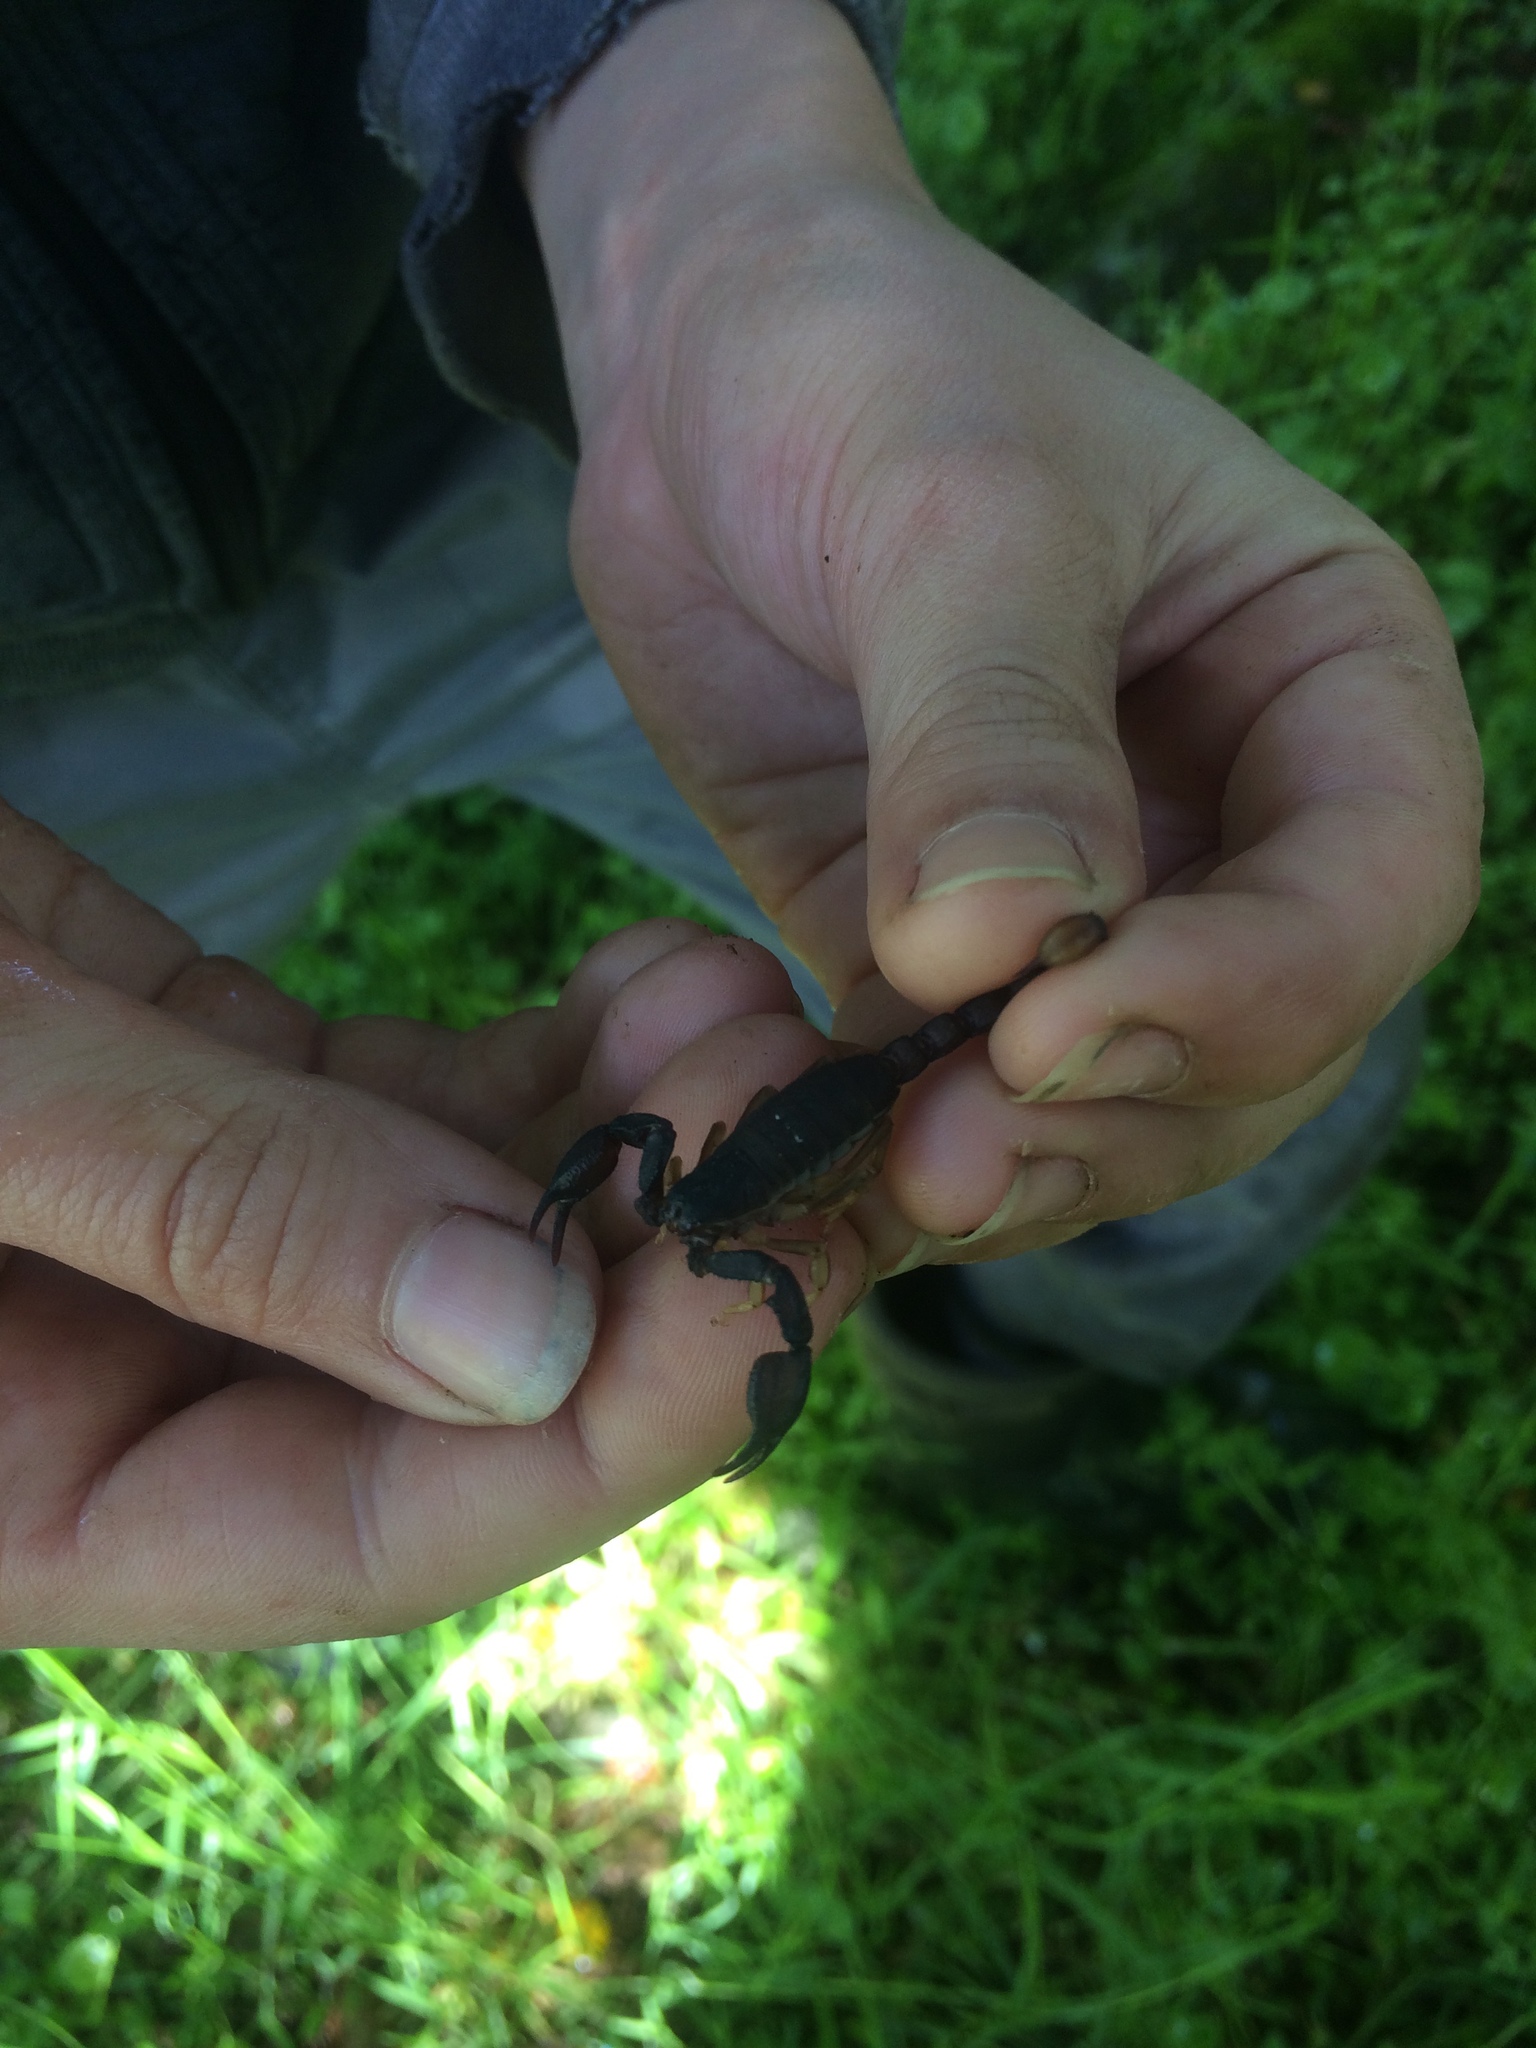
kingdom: Animalia
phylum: Arthropoda
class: Arachnida
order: Scorpiones
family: Chactidae
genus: Uroctonus
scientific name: Uroctonus mordax
